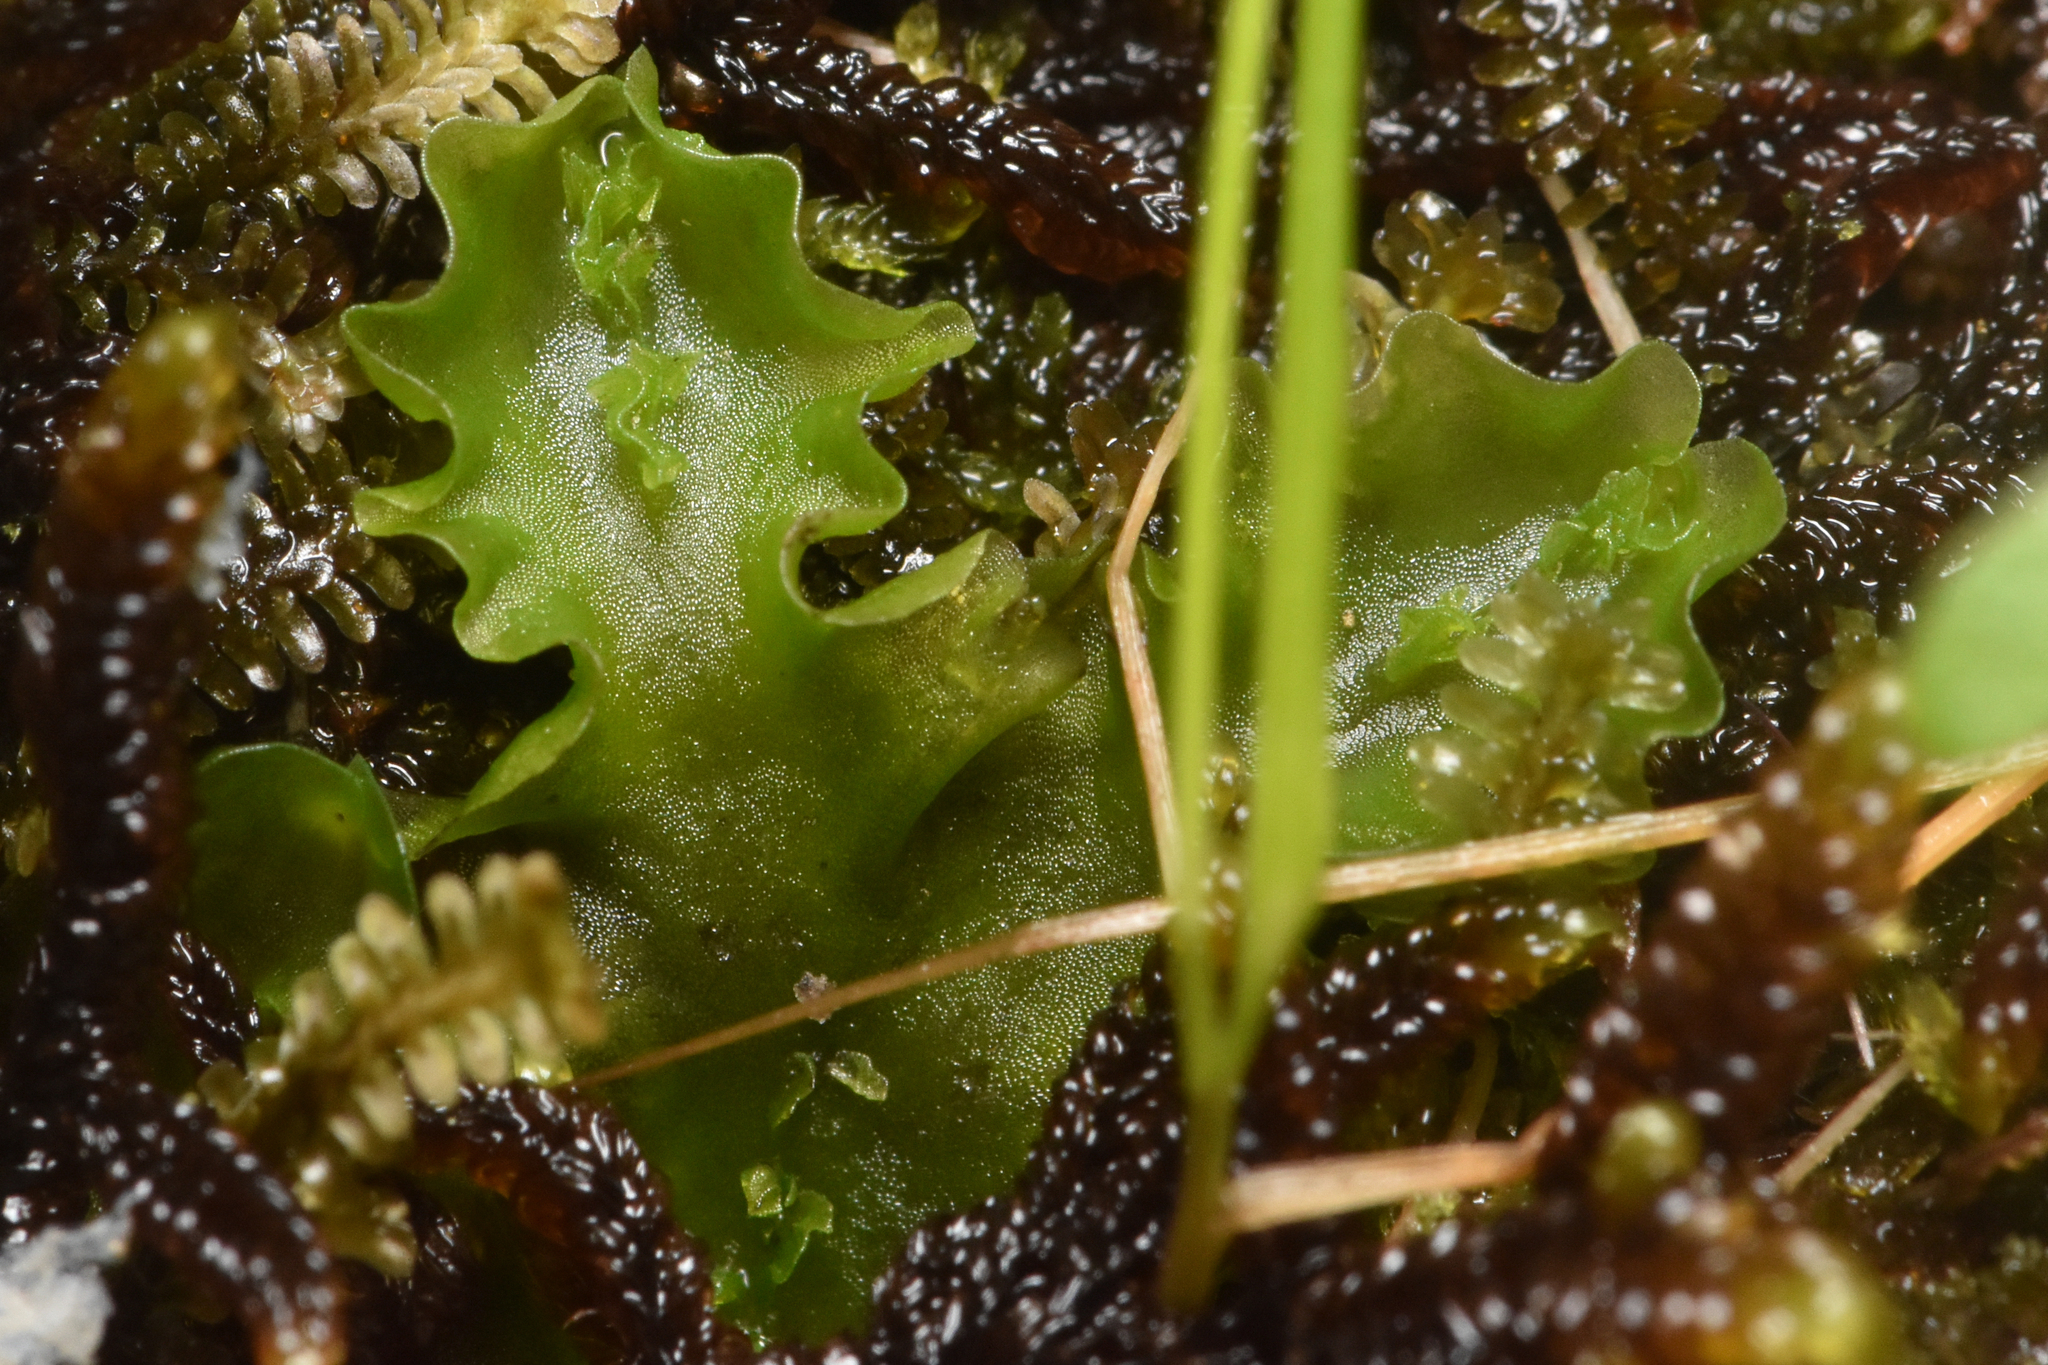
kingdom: Plantae
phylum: Marchantiophyta
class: Jungermanniopsida
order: Pallaviciniales
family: Pseudomoerckiaceae
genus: Pseudomoerckia
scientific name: Pseudomoerckia blyttii
